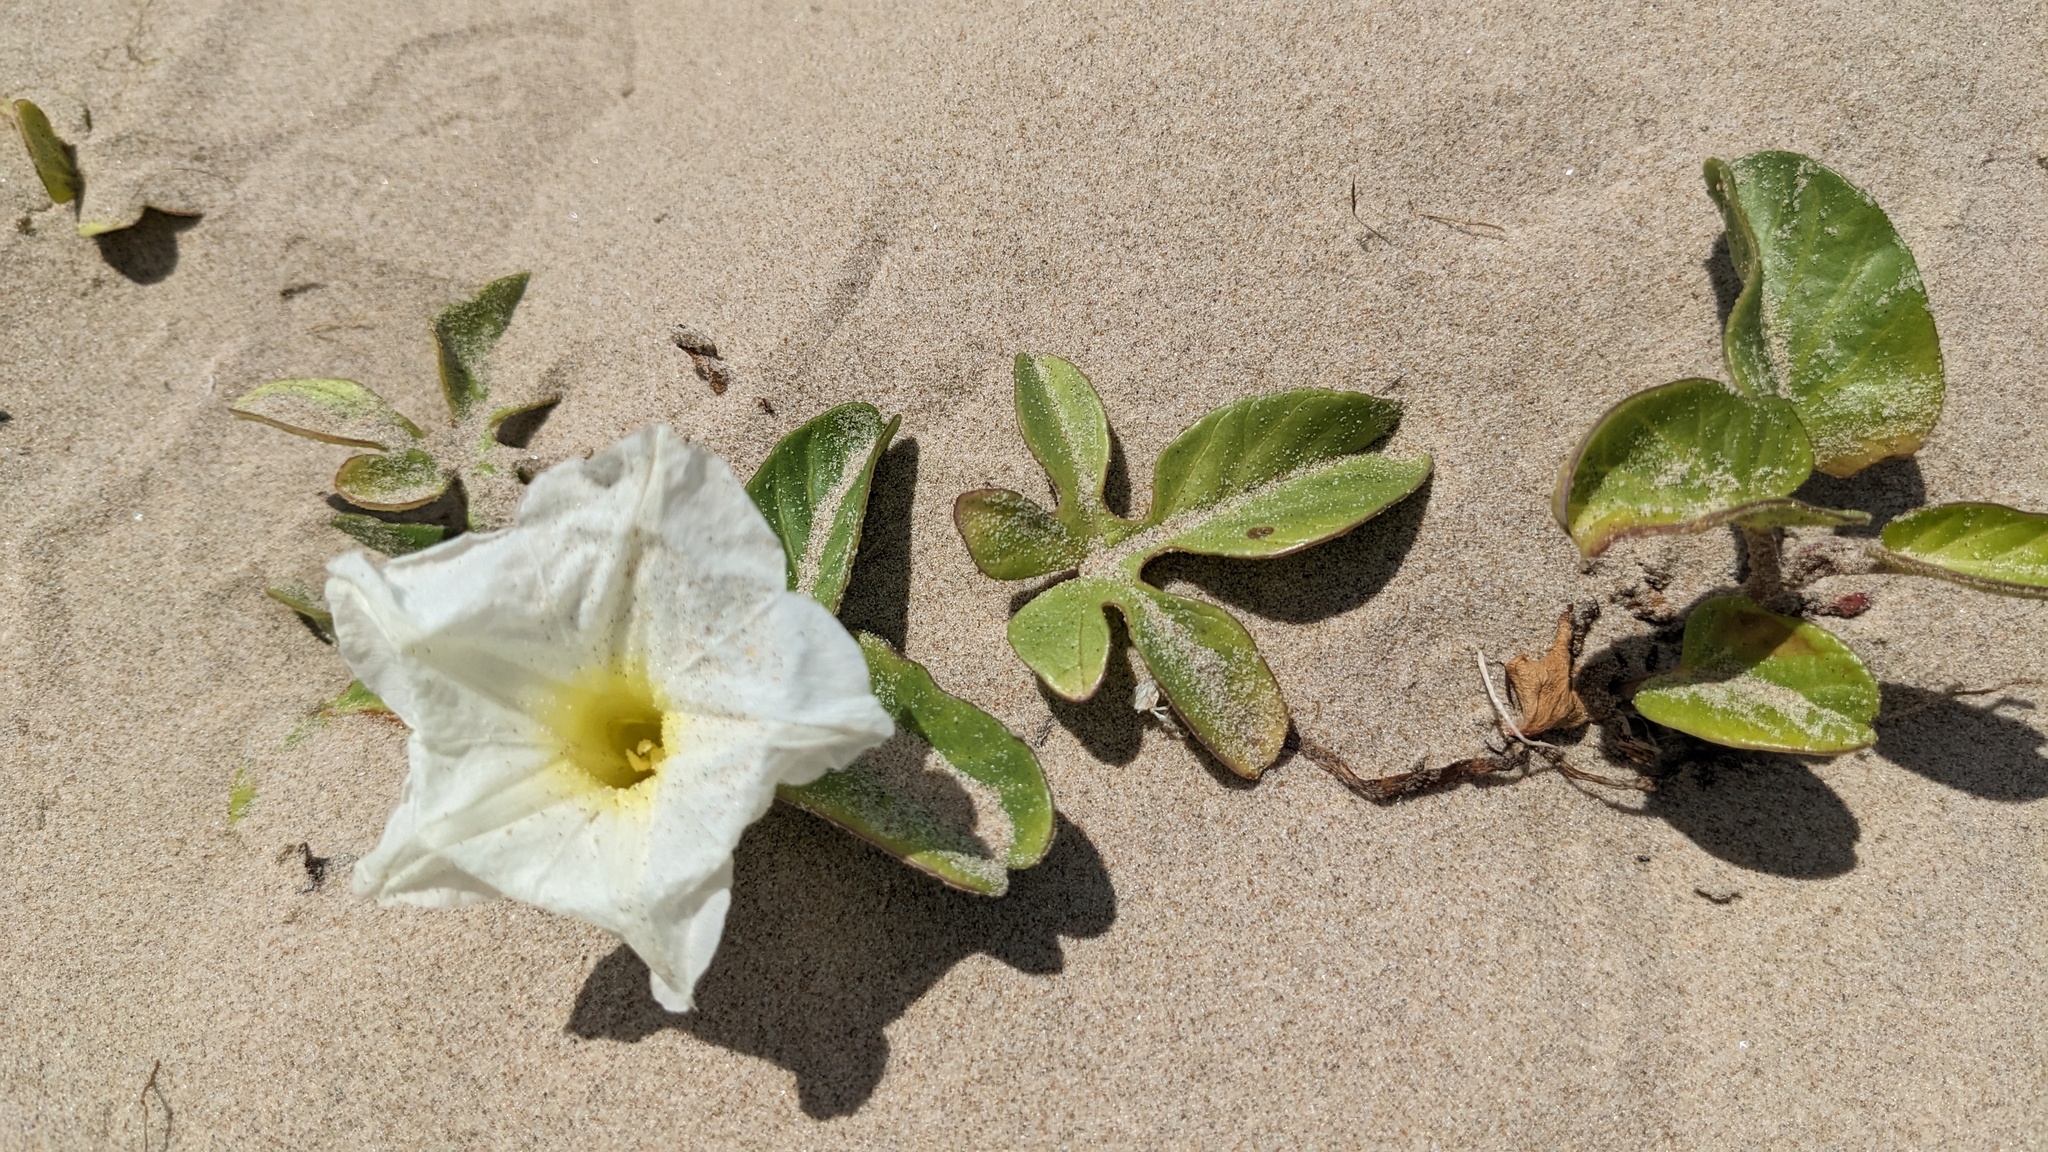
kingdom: Plantae
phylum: Tracheophyta
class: Magnoliopsida
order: Solanales
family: Convolvulaceae
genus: Ipomoea
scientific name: Ipomoea imperati
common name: Fiddle-leaf morning-glory
